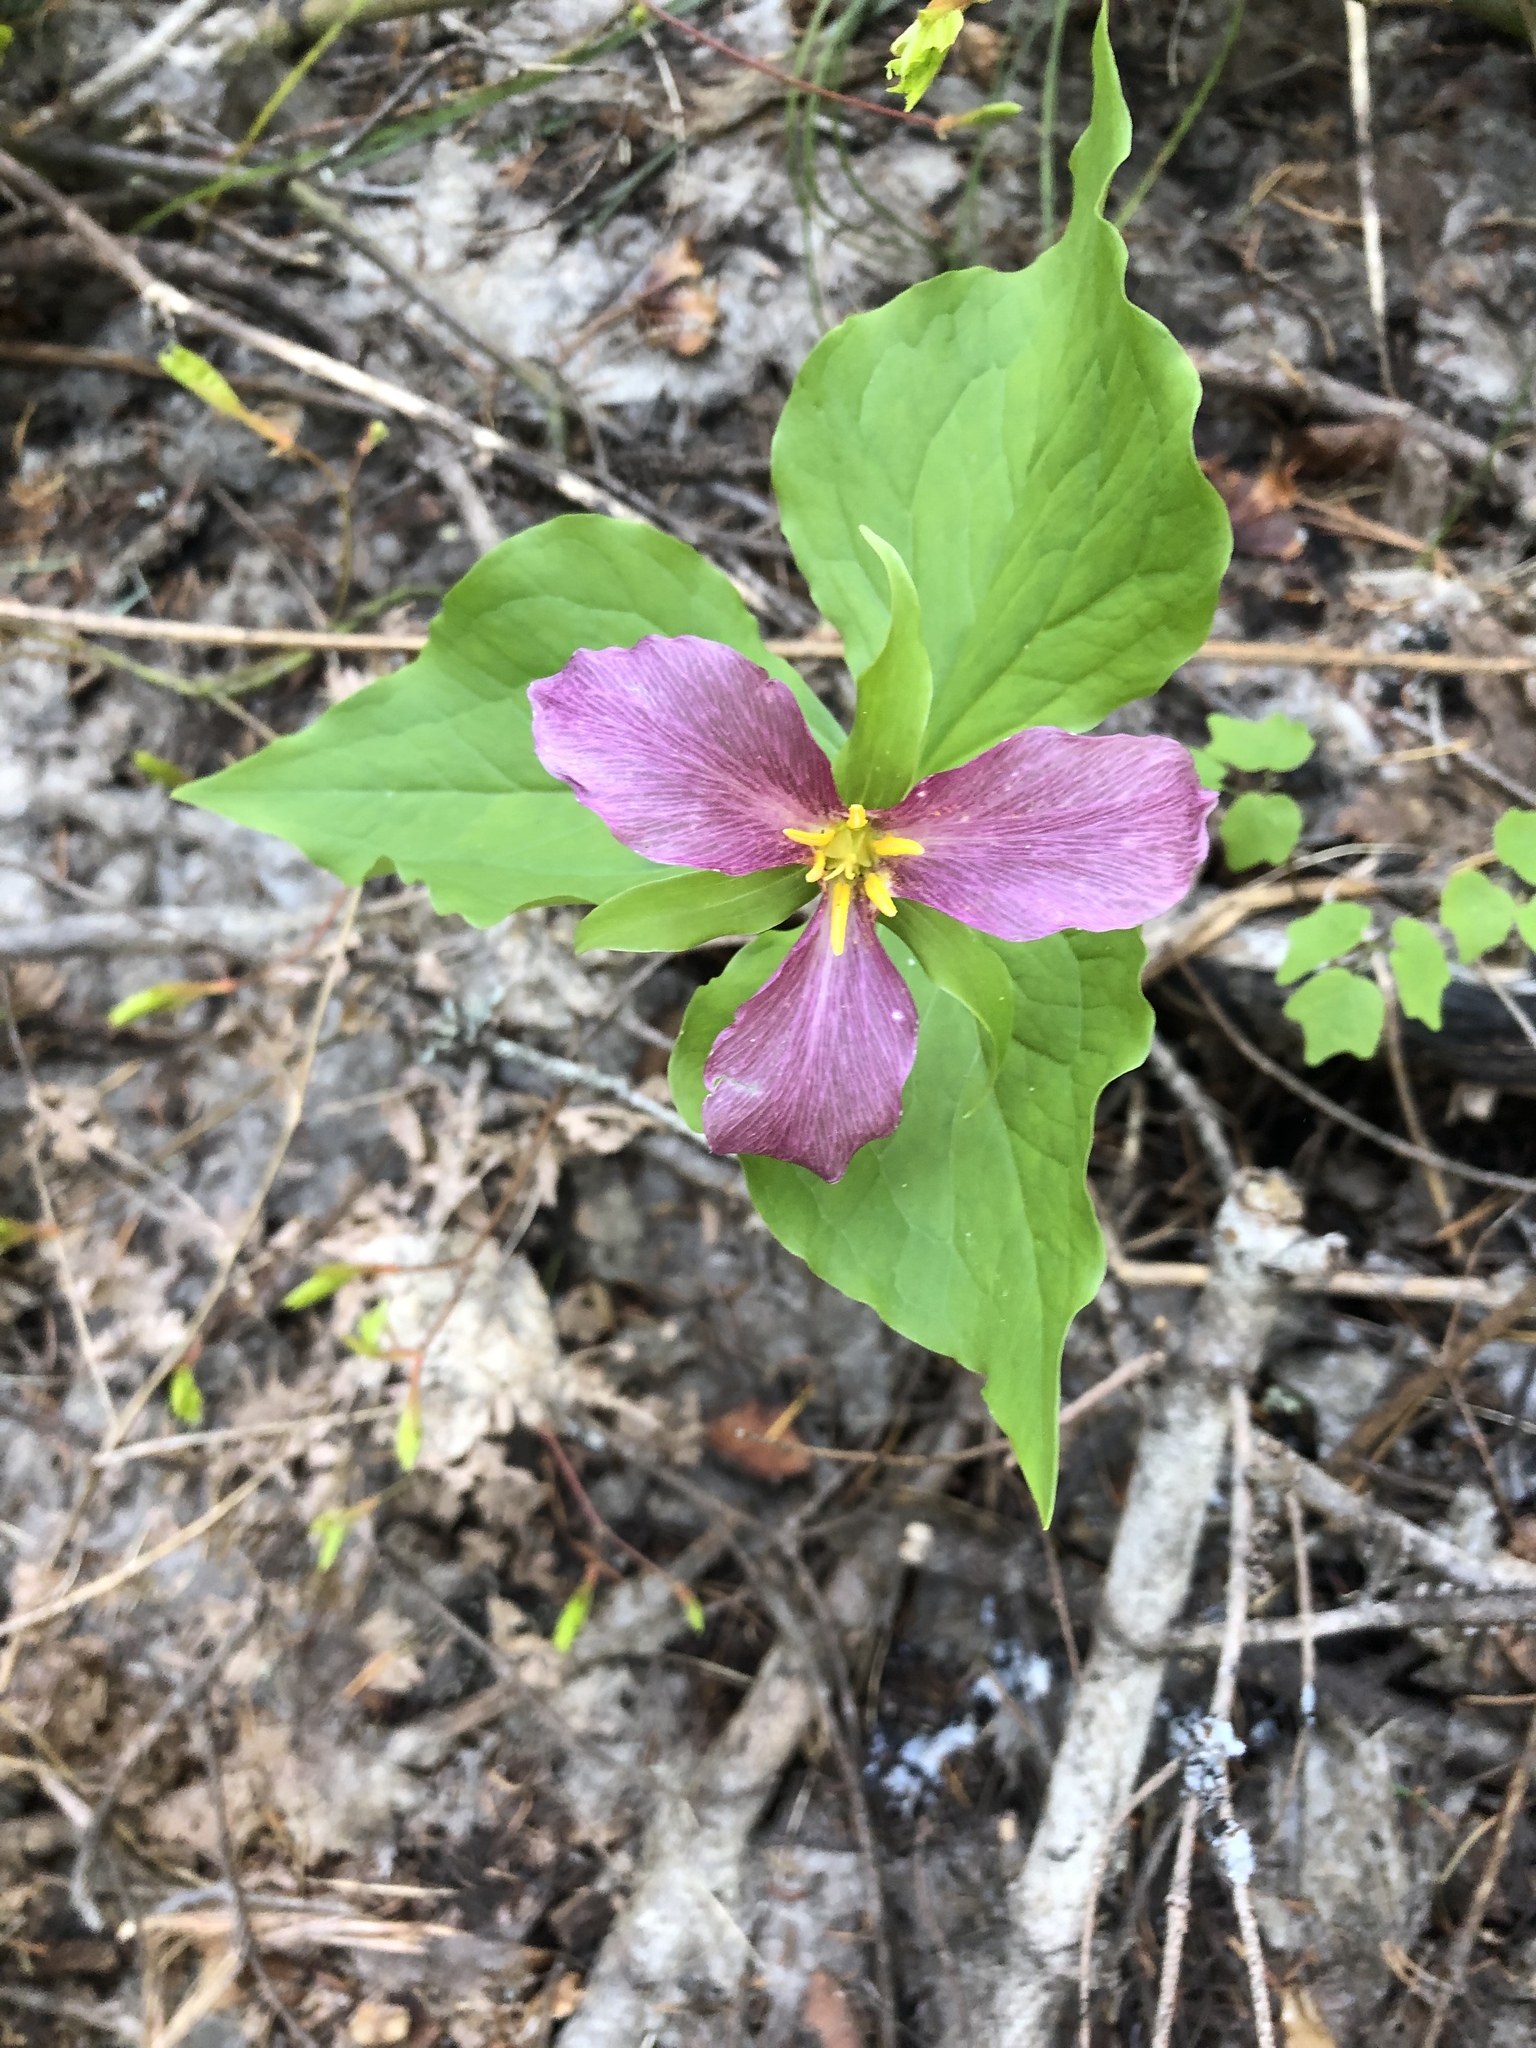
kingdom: Plantae
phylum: Tracheophyta
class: Liliopsida
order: Liliales
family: Melanthiaceae
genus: Trillium
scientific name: Trillium ovatum
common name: Pacific trillium
